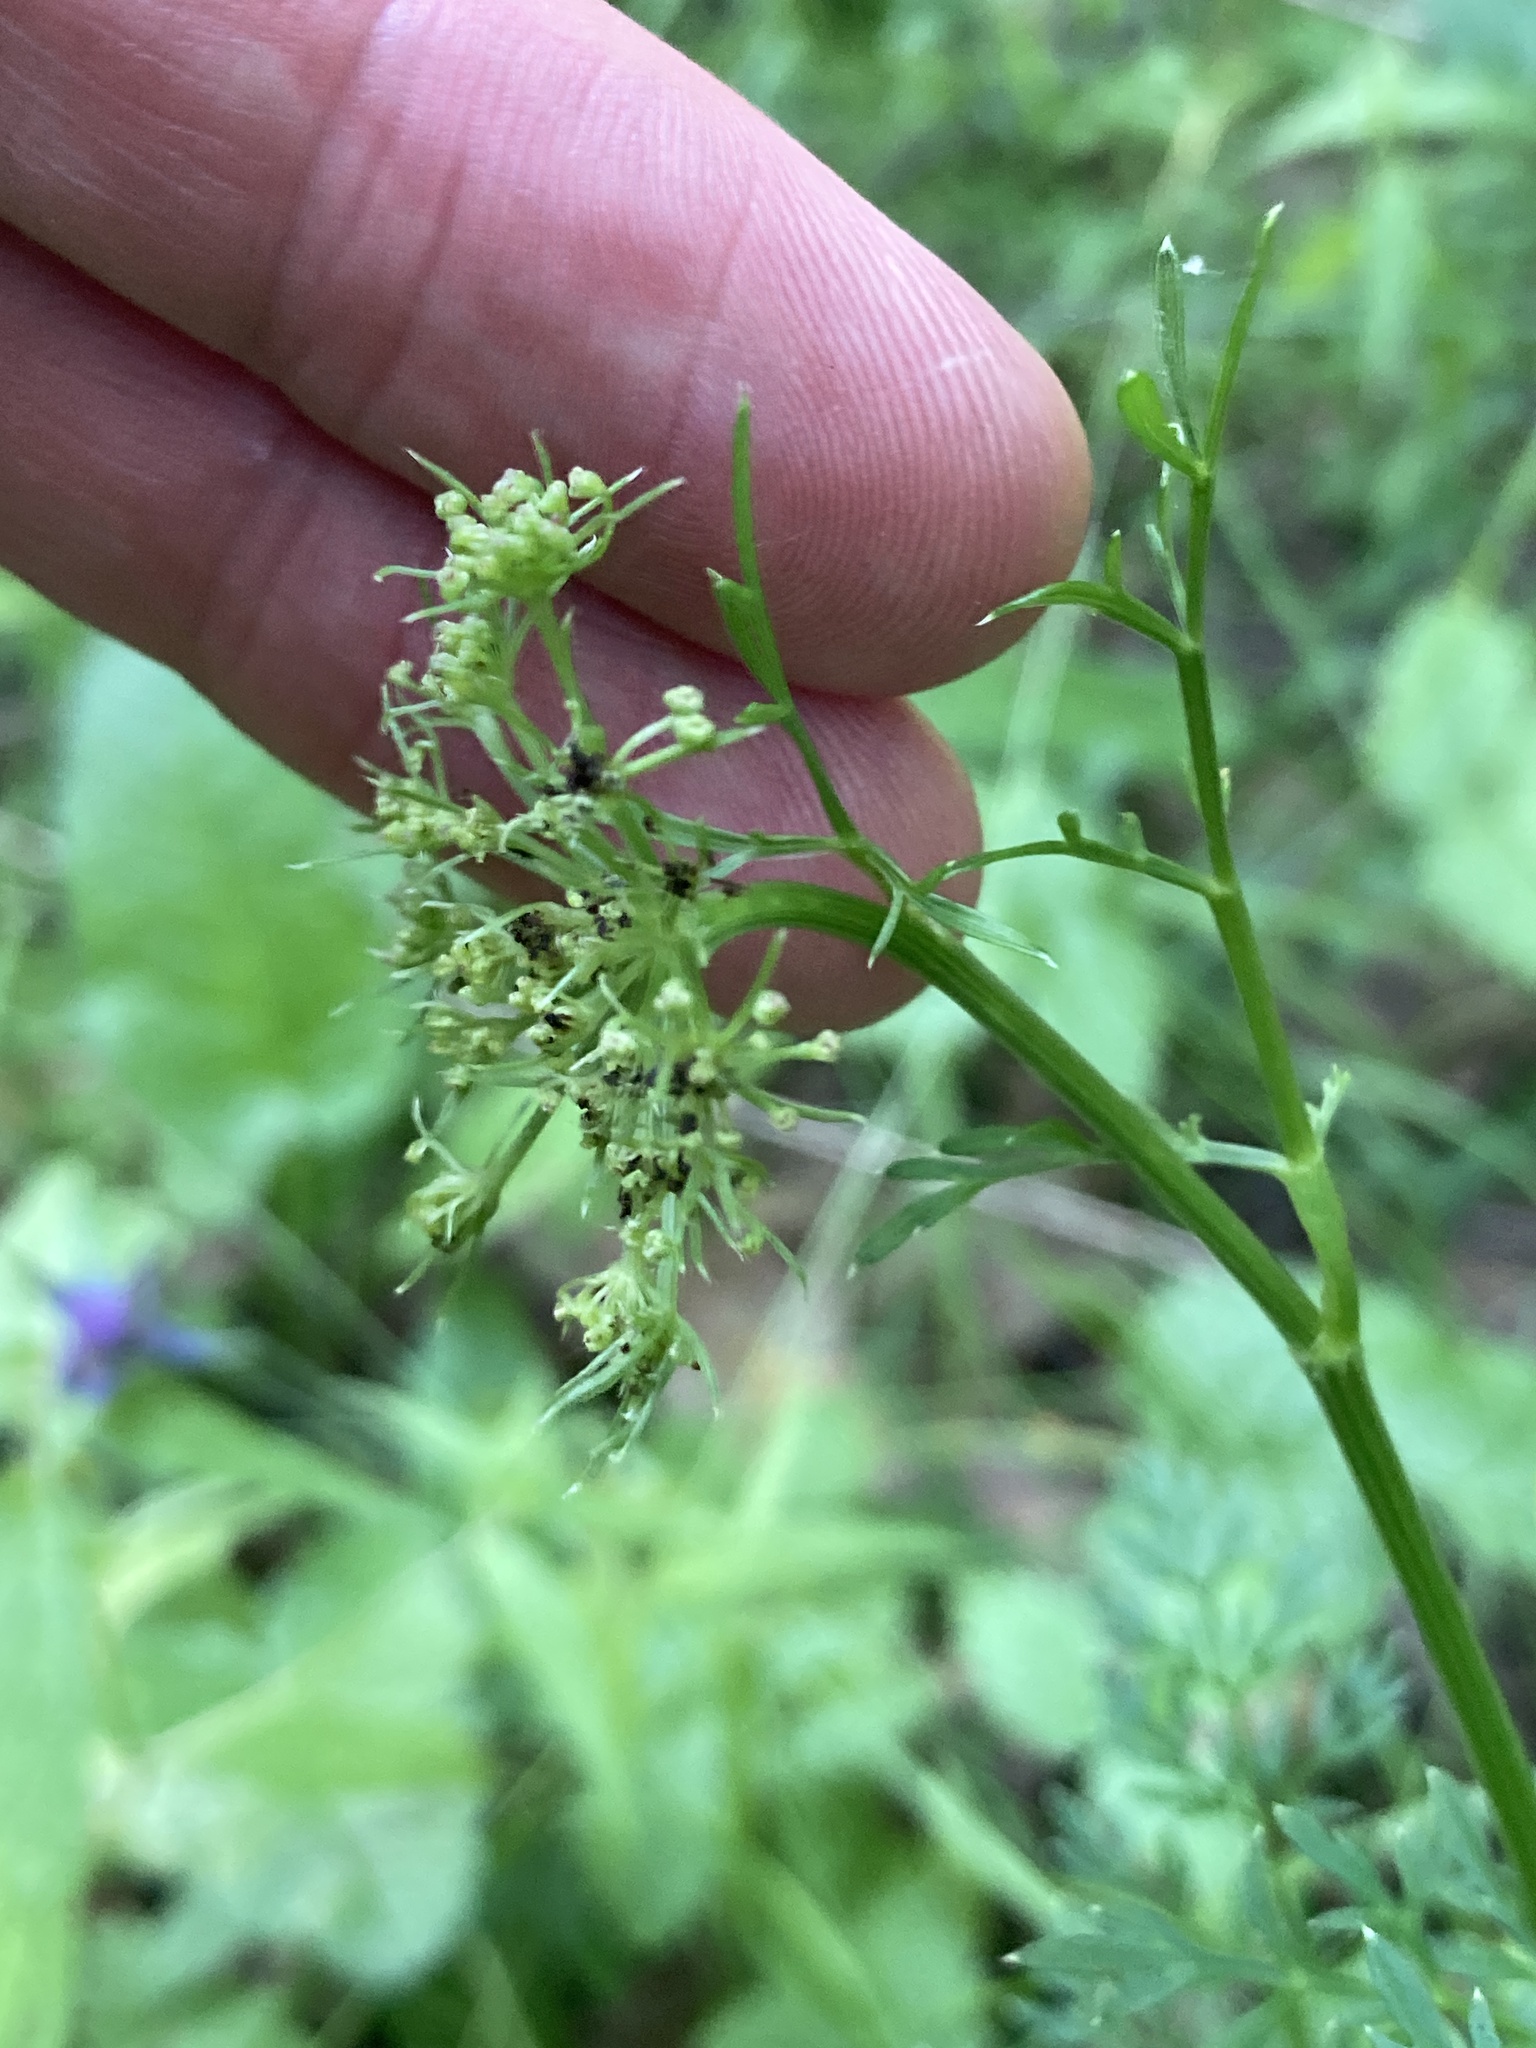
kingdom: Plantae
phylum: Tracheophyta
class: Magnoliopsida
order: Apiales
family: Apiaceae
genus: Selinum
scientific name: Selinum carvifolia
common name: Cambridge milk-parsley
